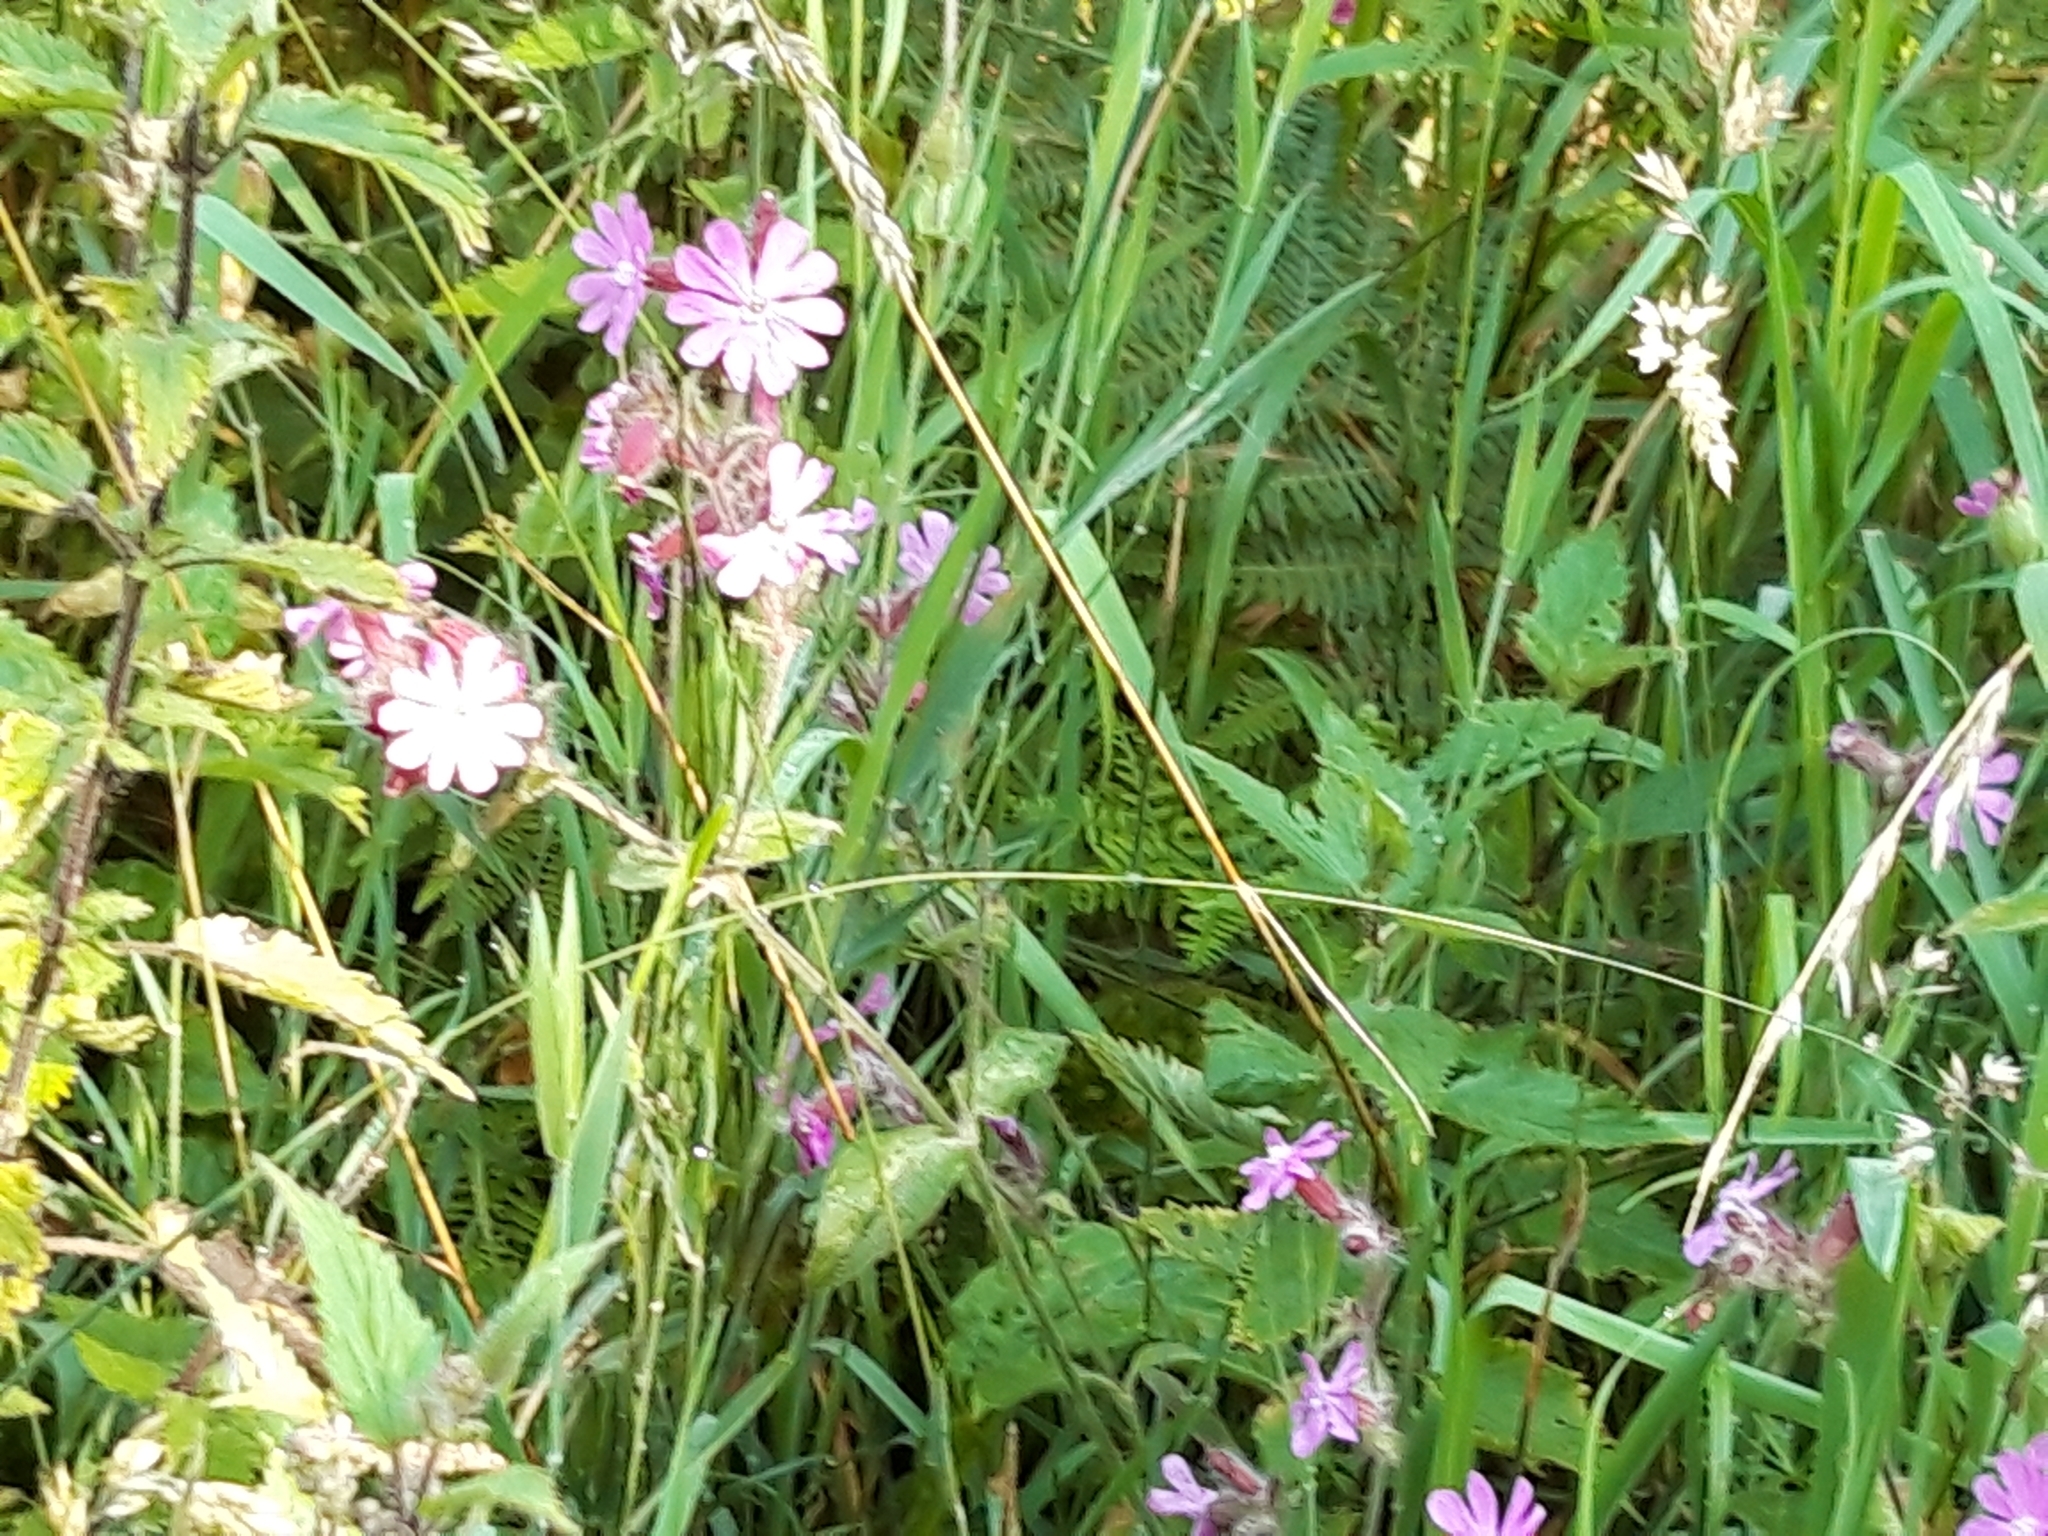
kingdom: Plantae
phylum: Tracheophyta
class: Magnoliopsida
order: Caryophyllales
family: Caryophyllaceae
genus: Silene
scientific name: Silene dioica
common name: Red campion
